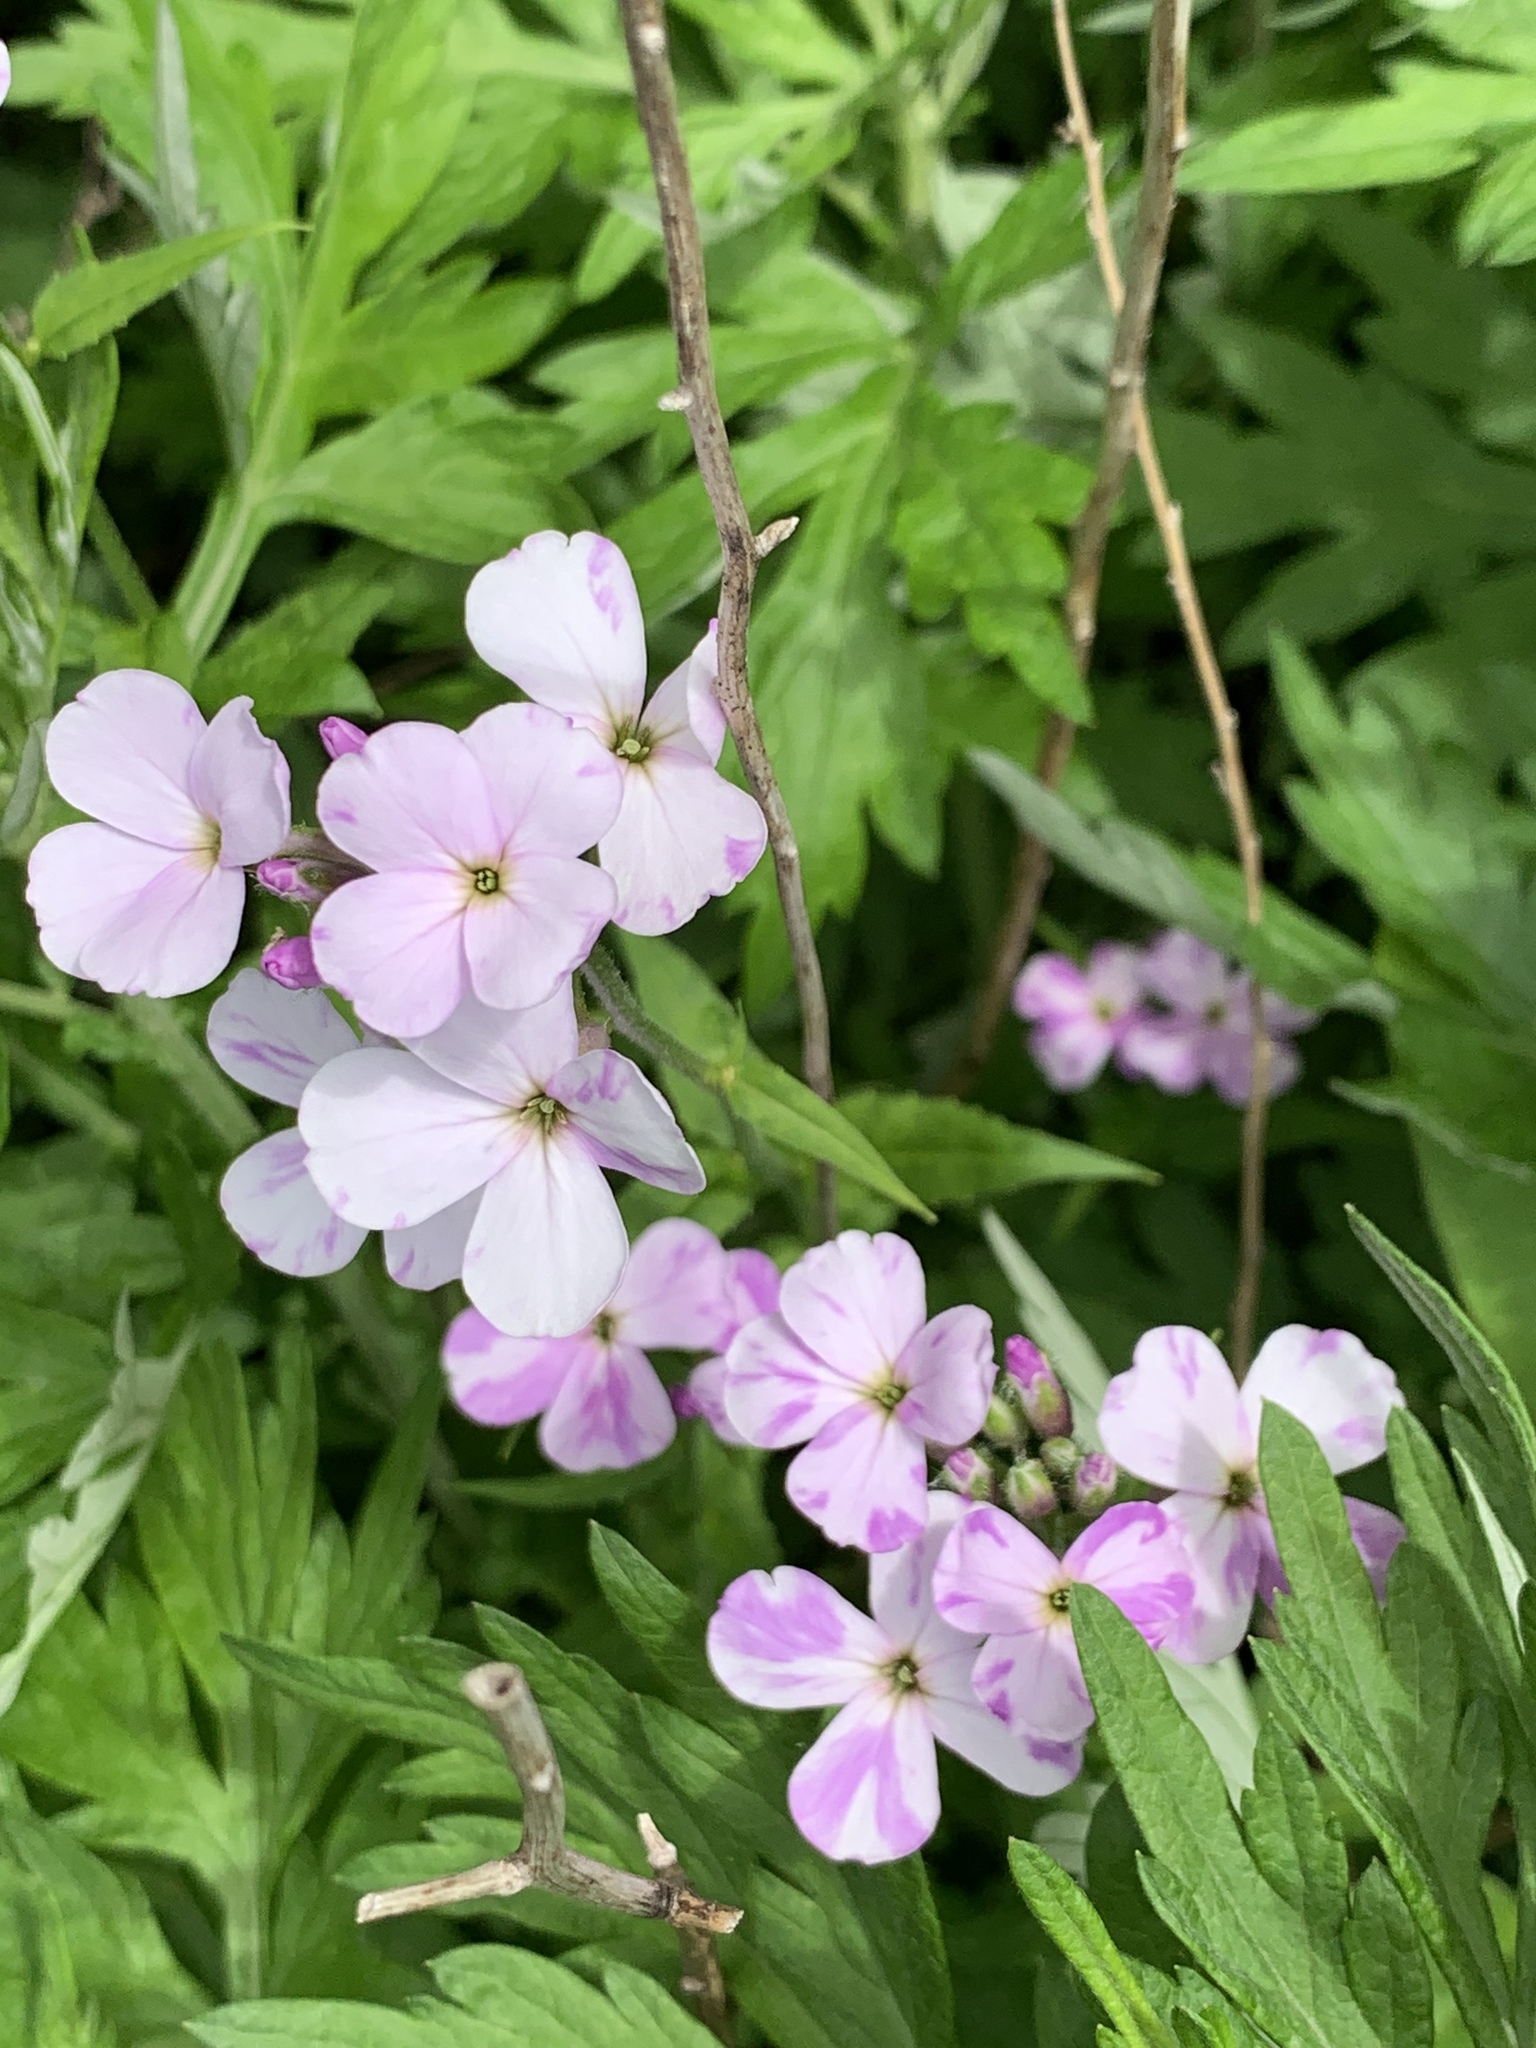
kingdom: Plantae
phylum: Tracheophyta
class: Magnoliopsida
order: Brassicales
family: Brassicaceae
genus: Hesperis
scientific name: Hesperis matronalis
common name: Dame's-violet
